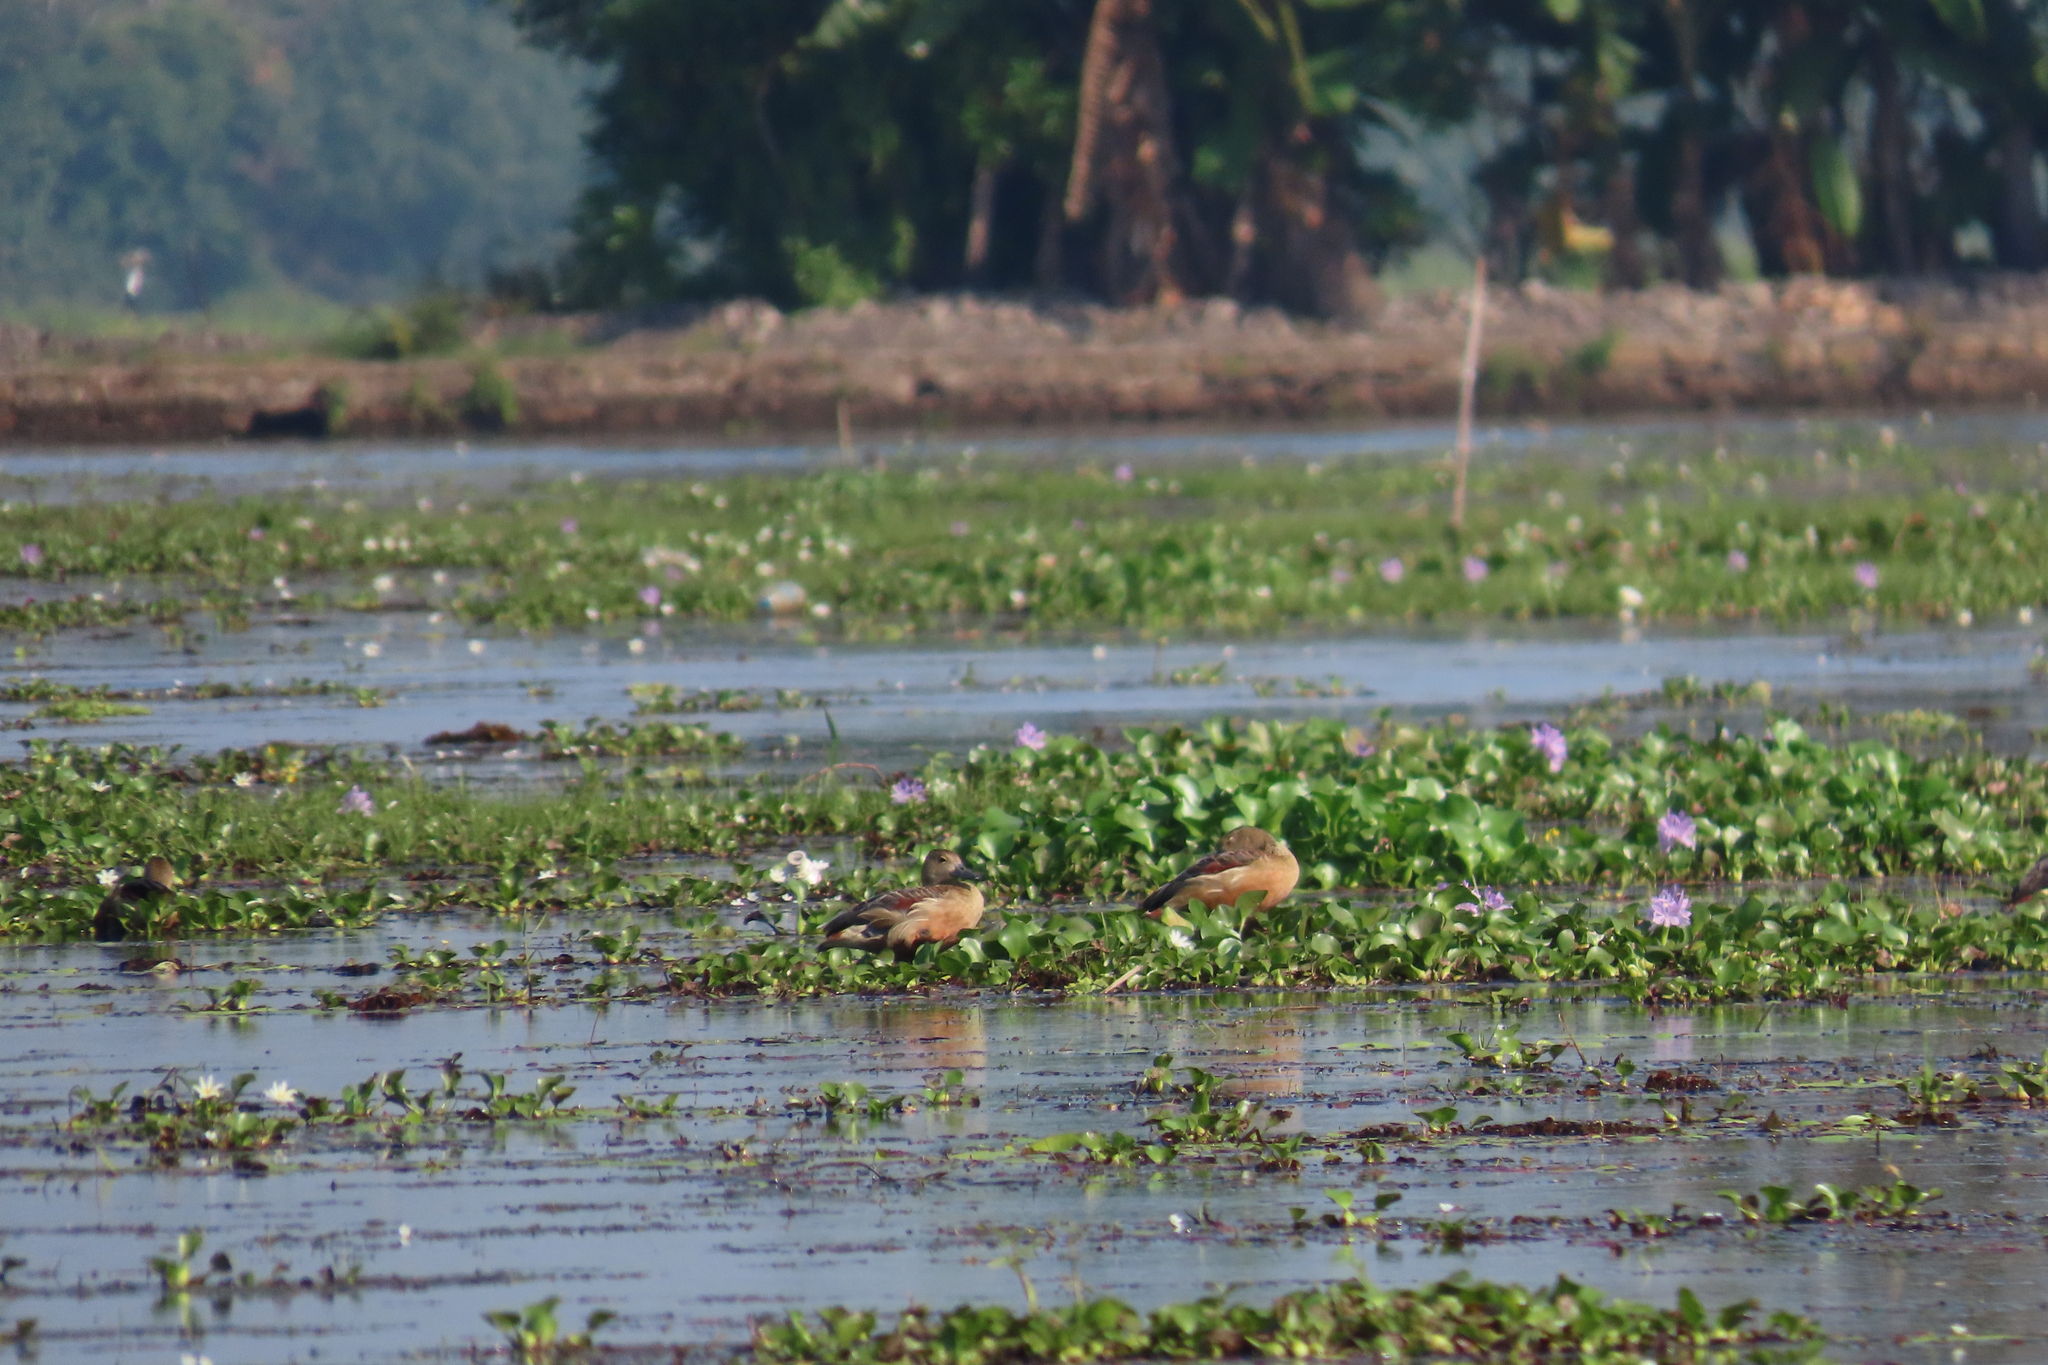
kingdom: Animalia
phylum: Chordata
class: Aves
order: Anseriformes
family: Anatidae
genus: Dendrocygna
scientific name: Dendrocygna javanica
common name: Lesser whistling-duck
